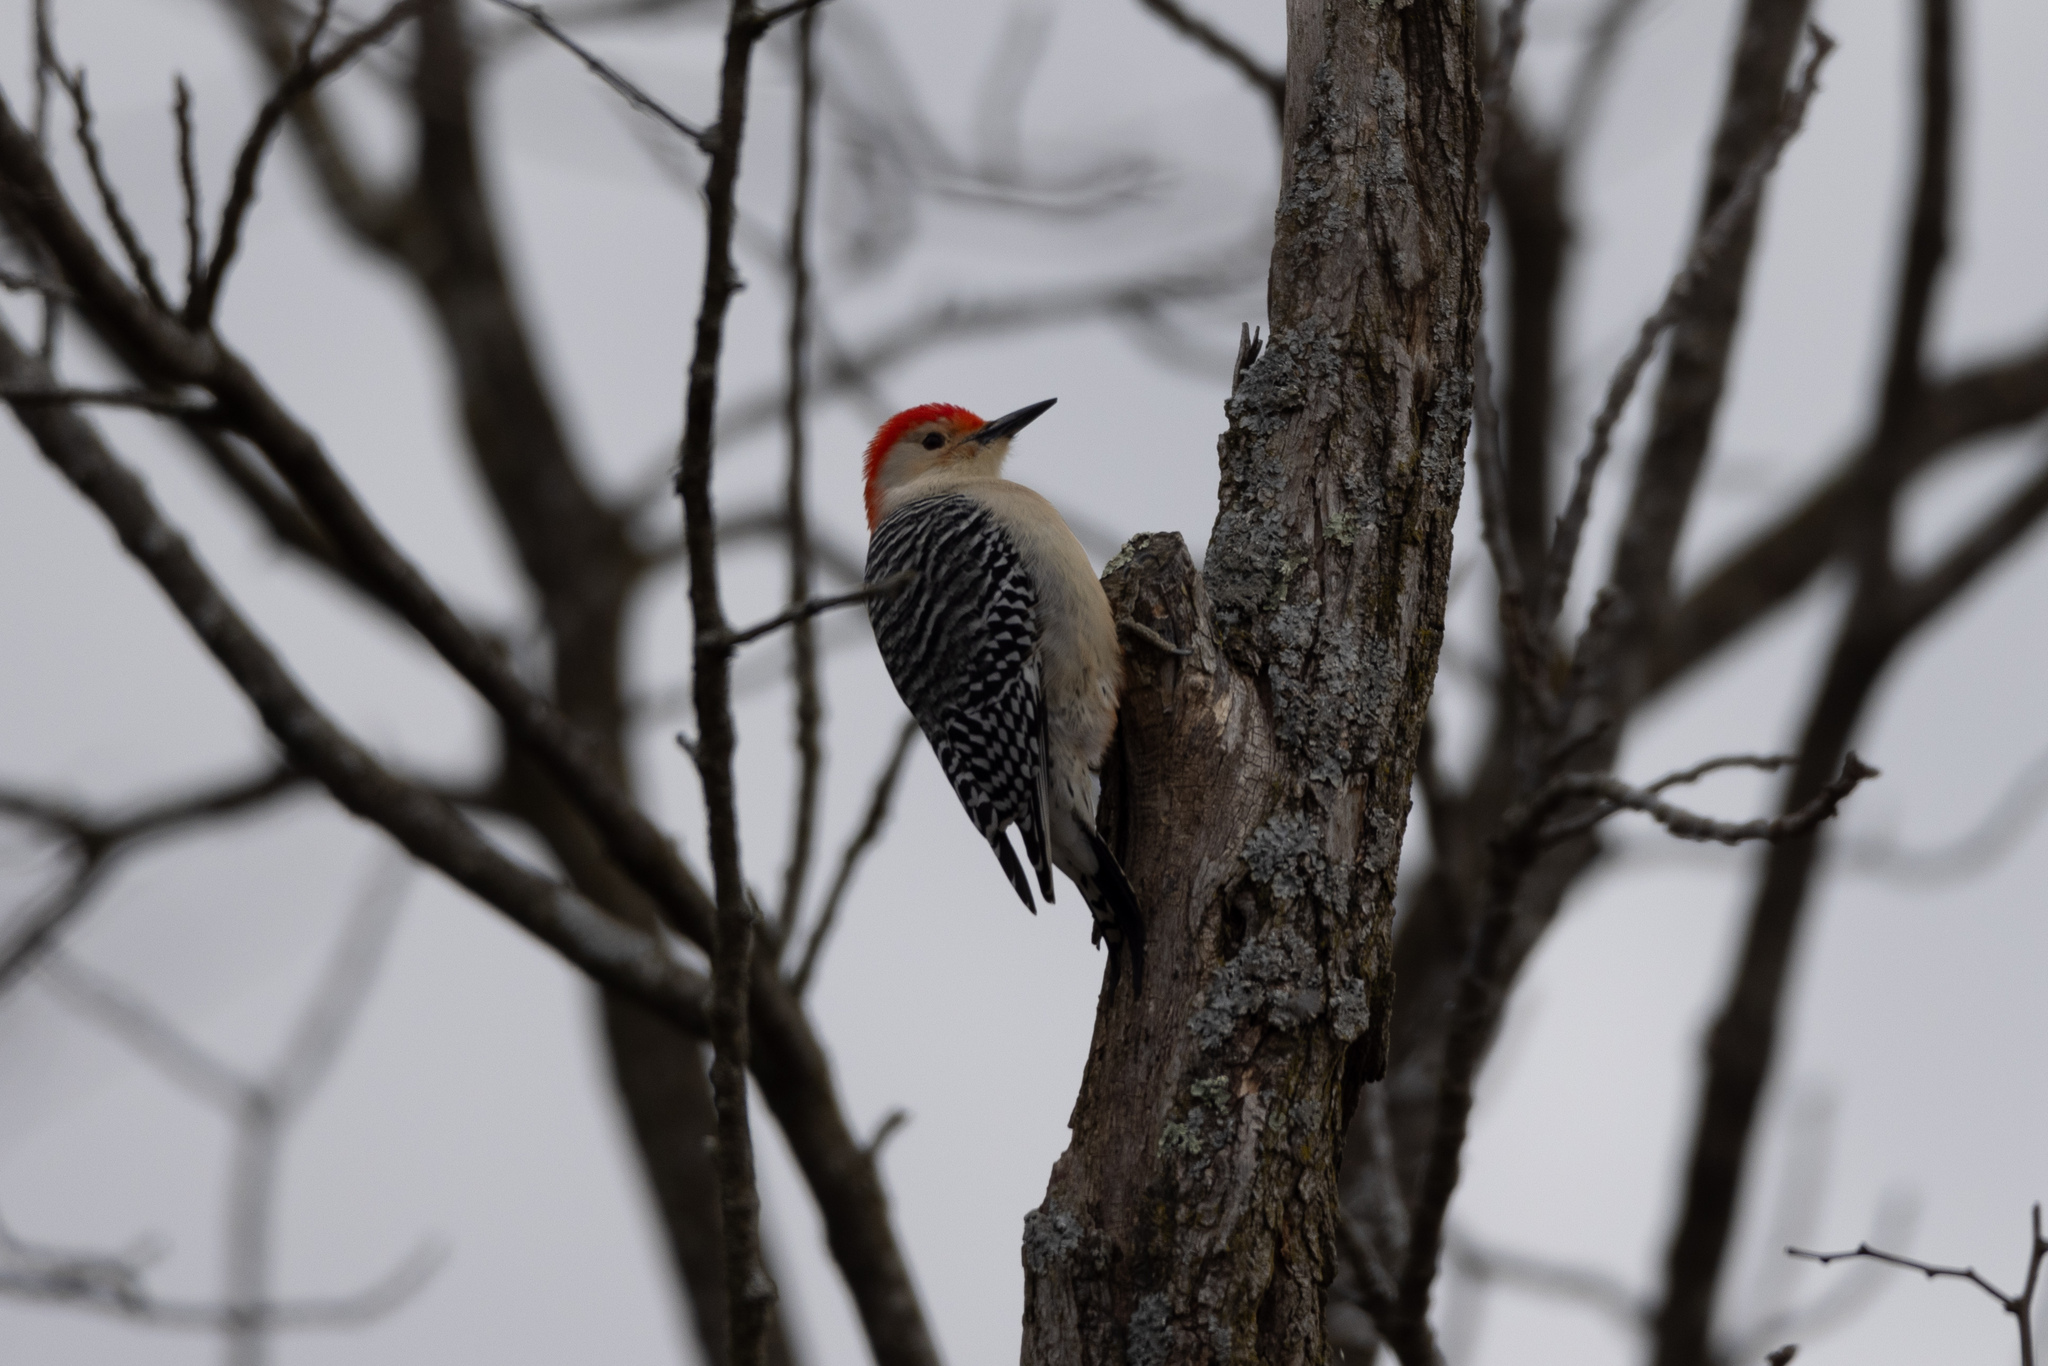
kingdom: Animalia
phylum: Chordata
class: Aves
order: Piciformes
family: Picidae
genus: Melanerpes
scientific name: Melanerpes carolinus
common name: Red-bellied woodpecker
